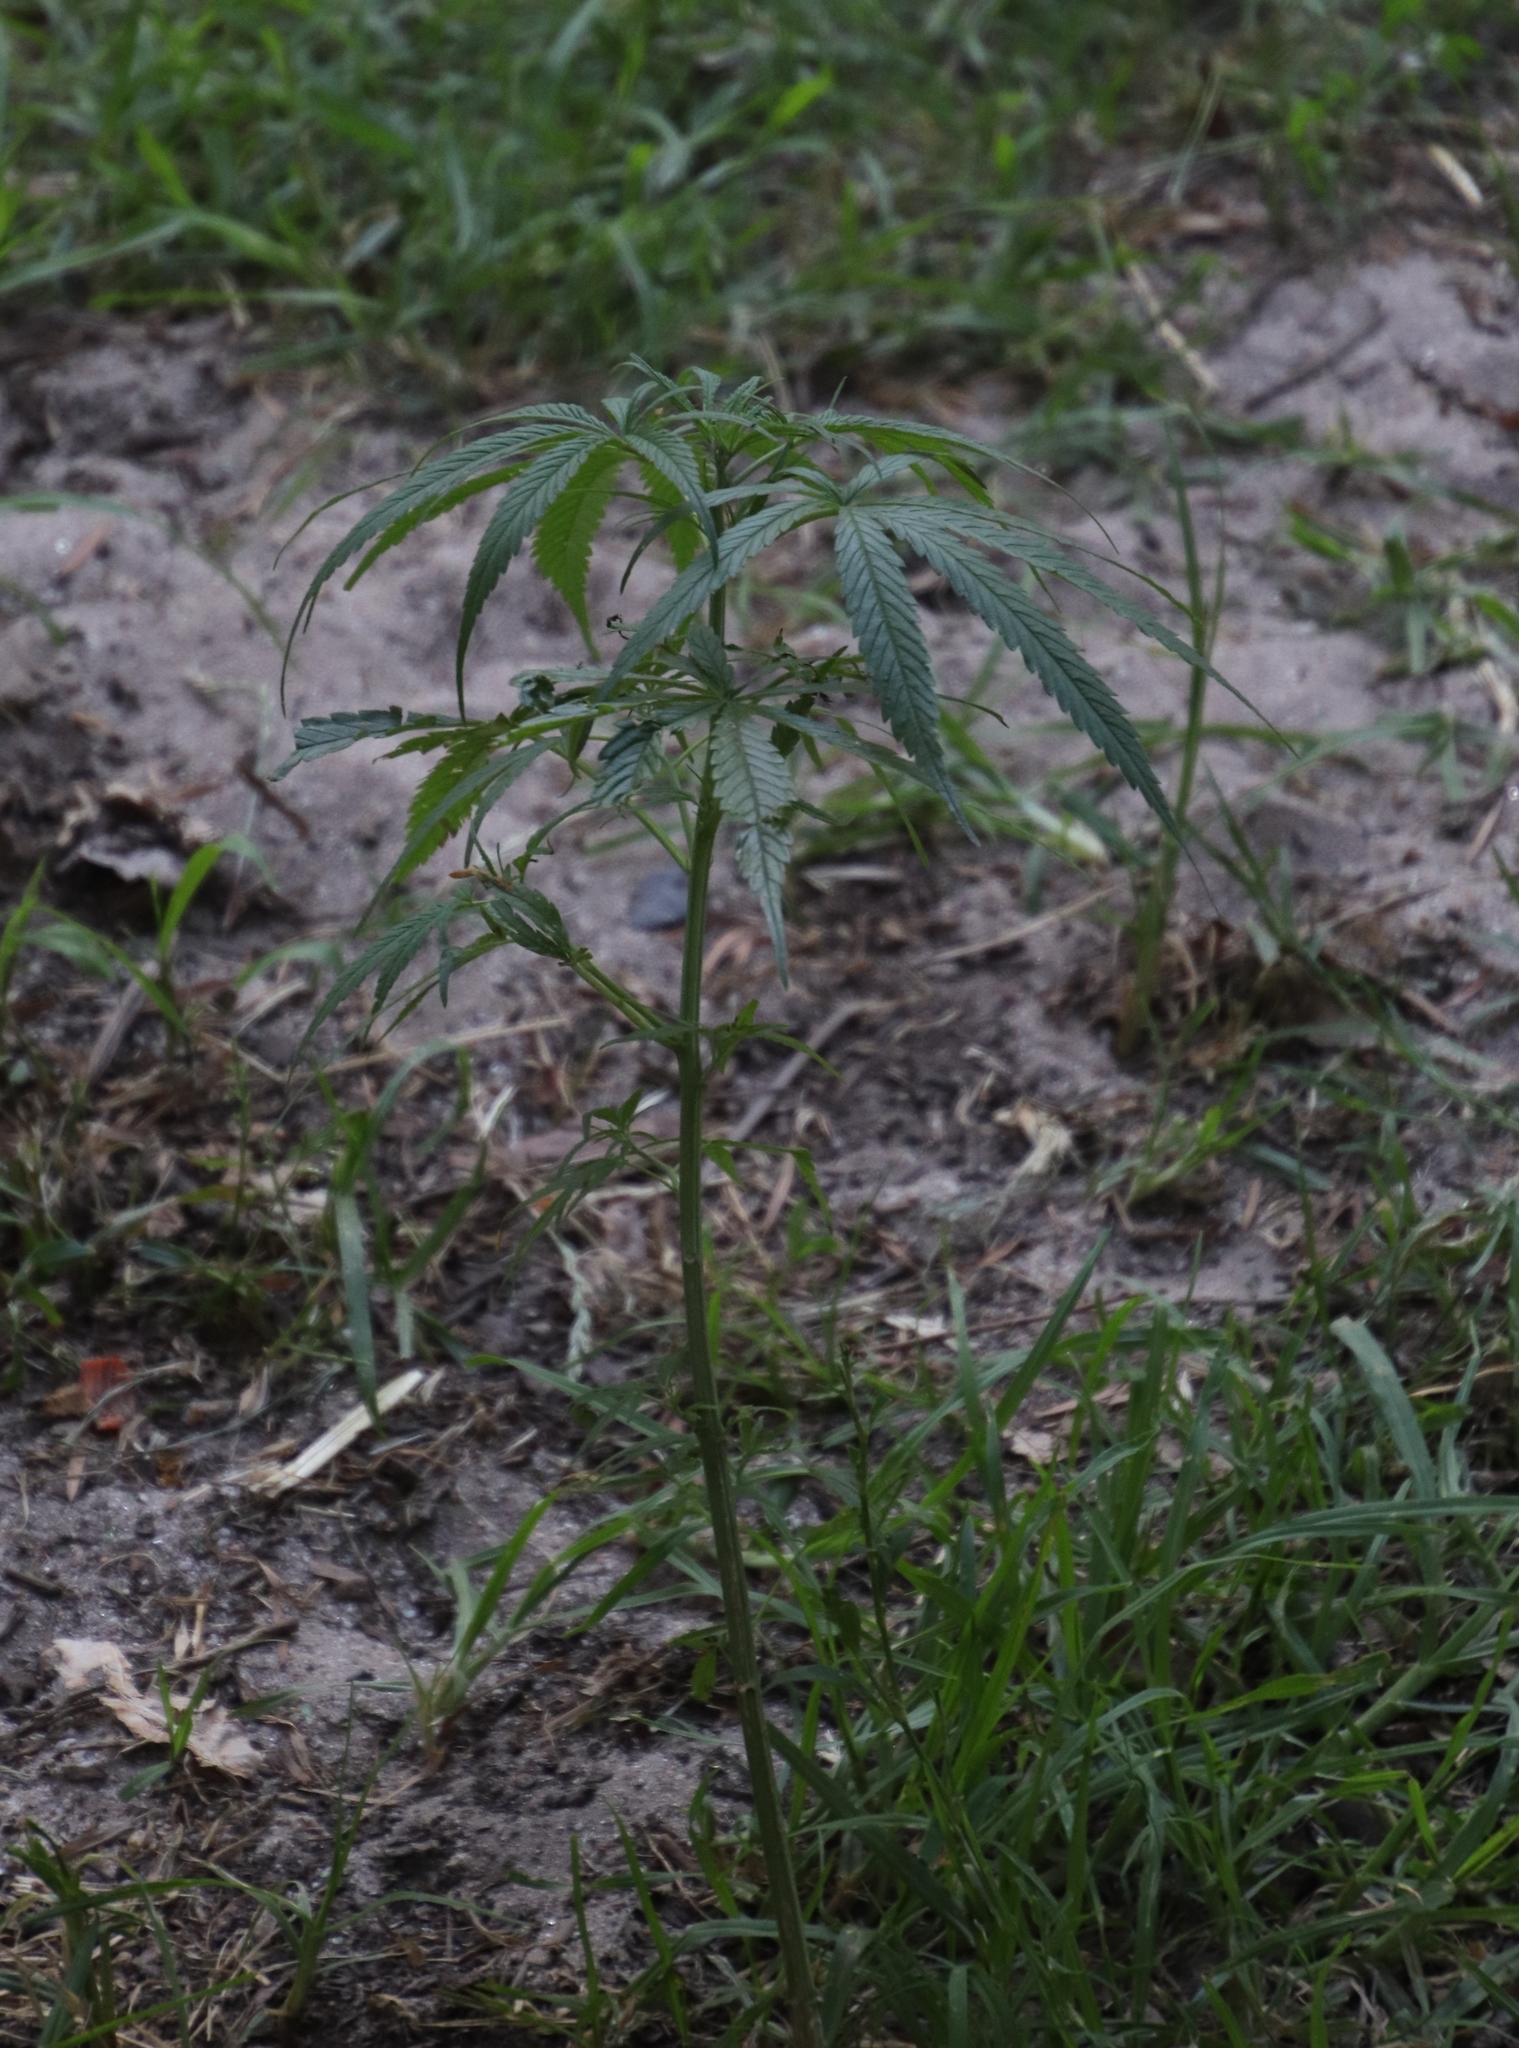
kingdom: Plantae
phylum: Tracheophyta
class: Magnoliopsida
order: Rosales
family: Cannabaceae
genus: Cannabis
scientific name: Cannabis sativa
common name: Hemp
